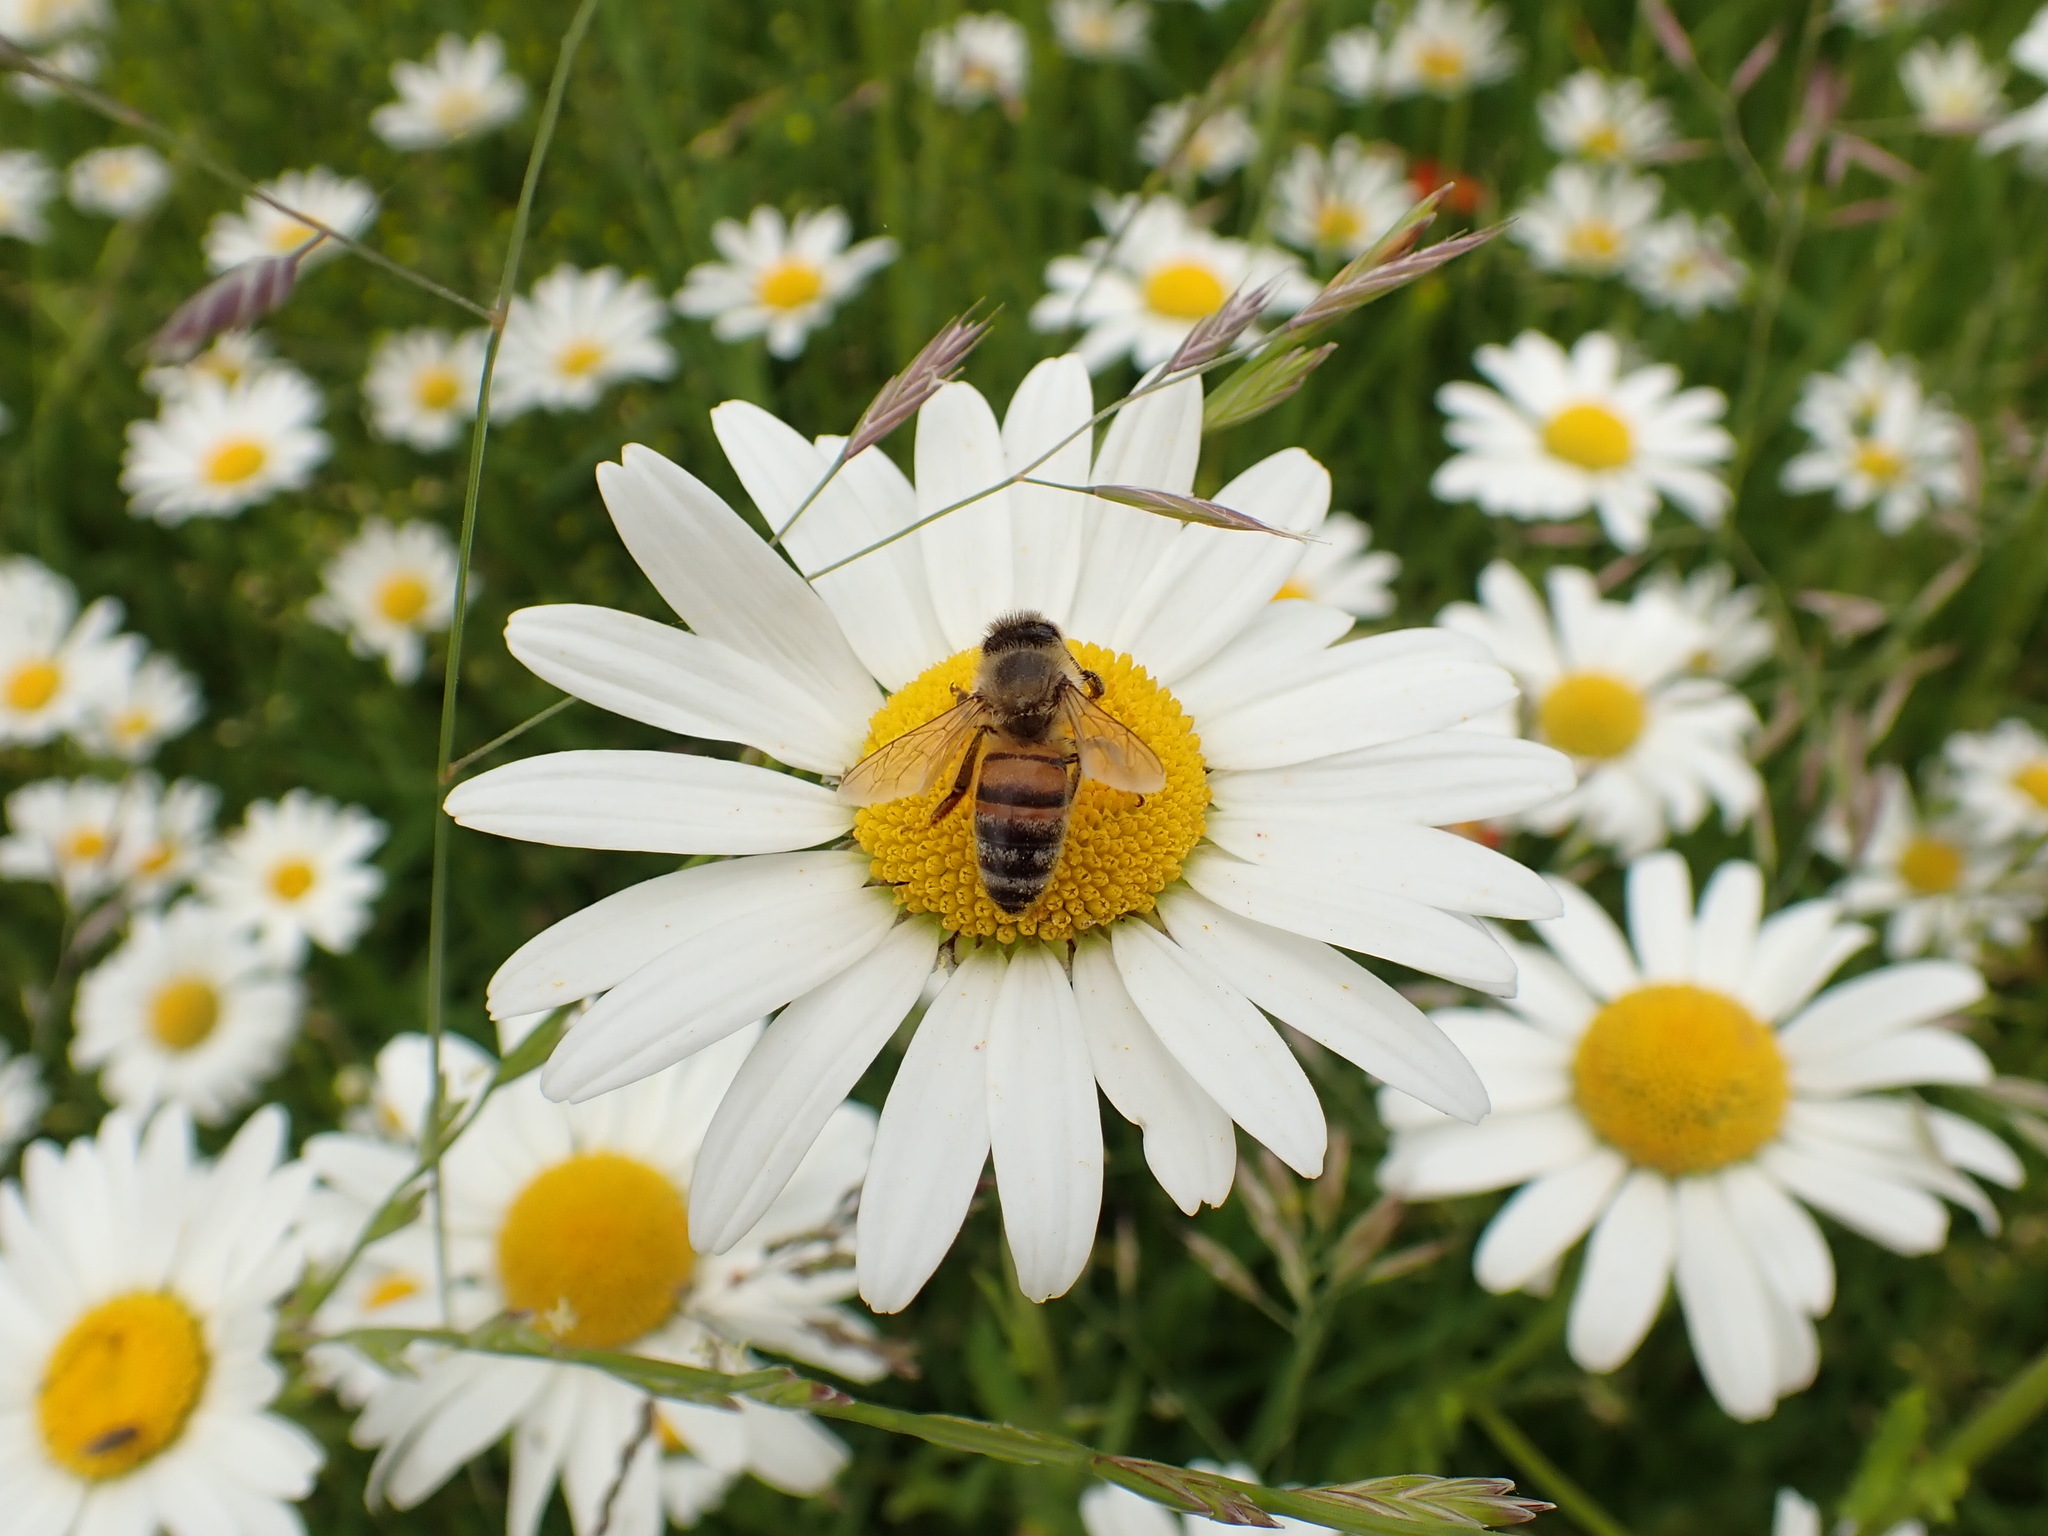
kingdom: Animalia
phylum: Arthropoda
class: Insecta
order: Hymenoptera
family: Apidae
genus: Apis
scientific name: Apis mellifera
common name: Honey bee
